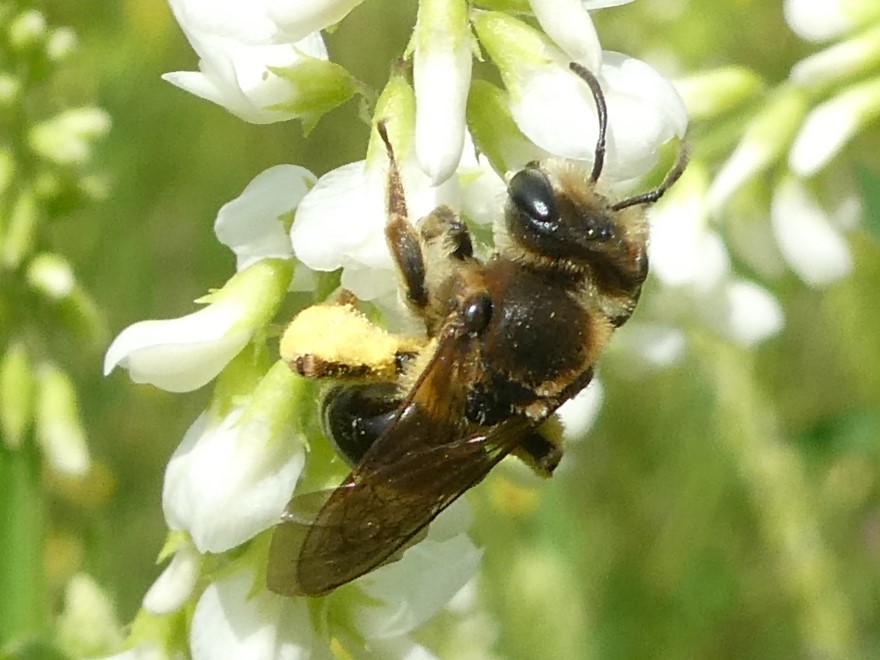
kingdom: Animalia
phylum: Arthropoda
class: Insecta
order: Hymenoptera
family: Andrenidae
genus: Andrena
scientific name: Andrena wilkella
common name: Wilke's mining bee
